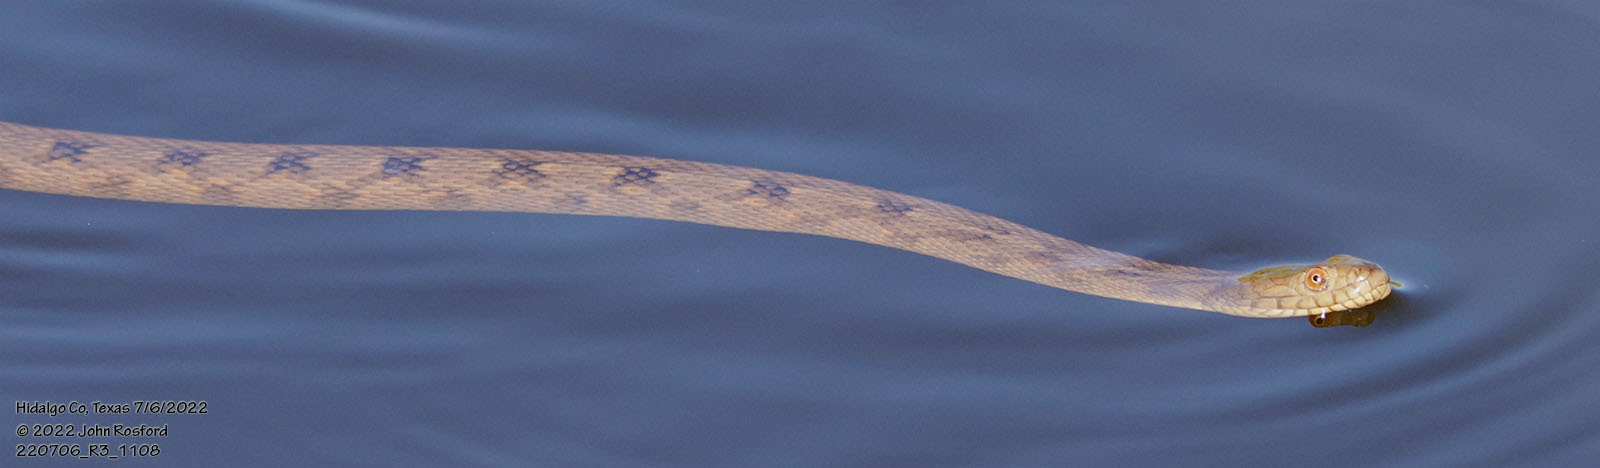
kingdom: Animalia
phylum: Chordata
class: Squamata
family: Colubridae
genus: Nerodia
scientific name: Nerodia rhombifer
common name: Diamondback water snake
